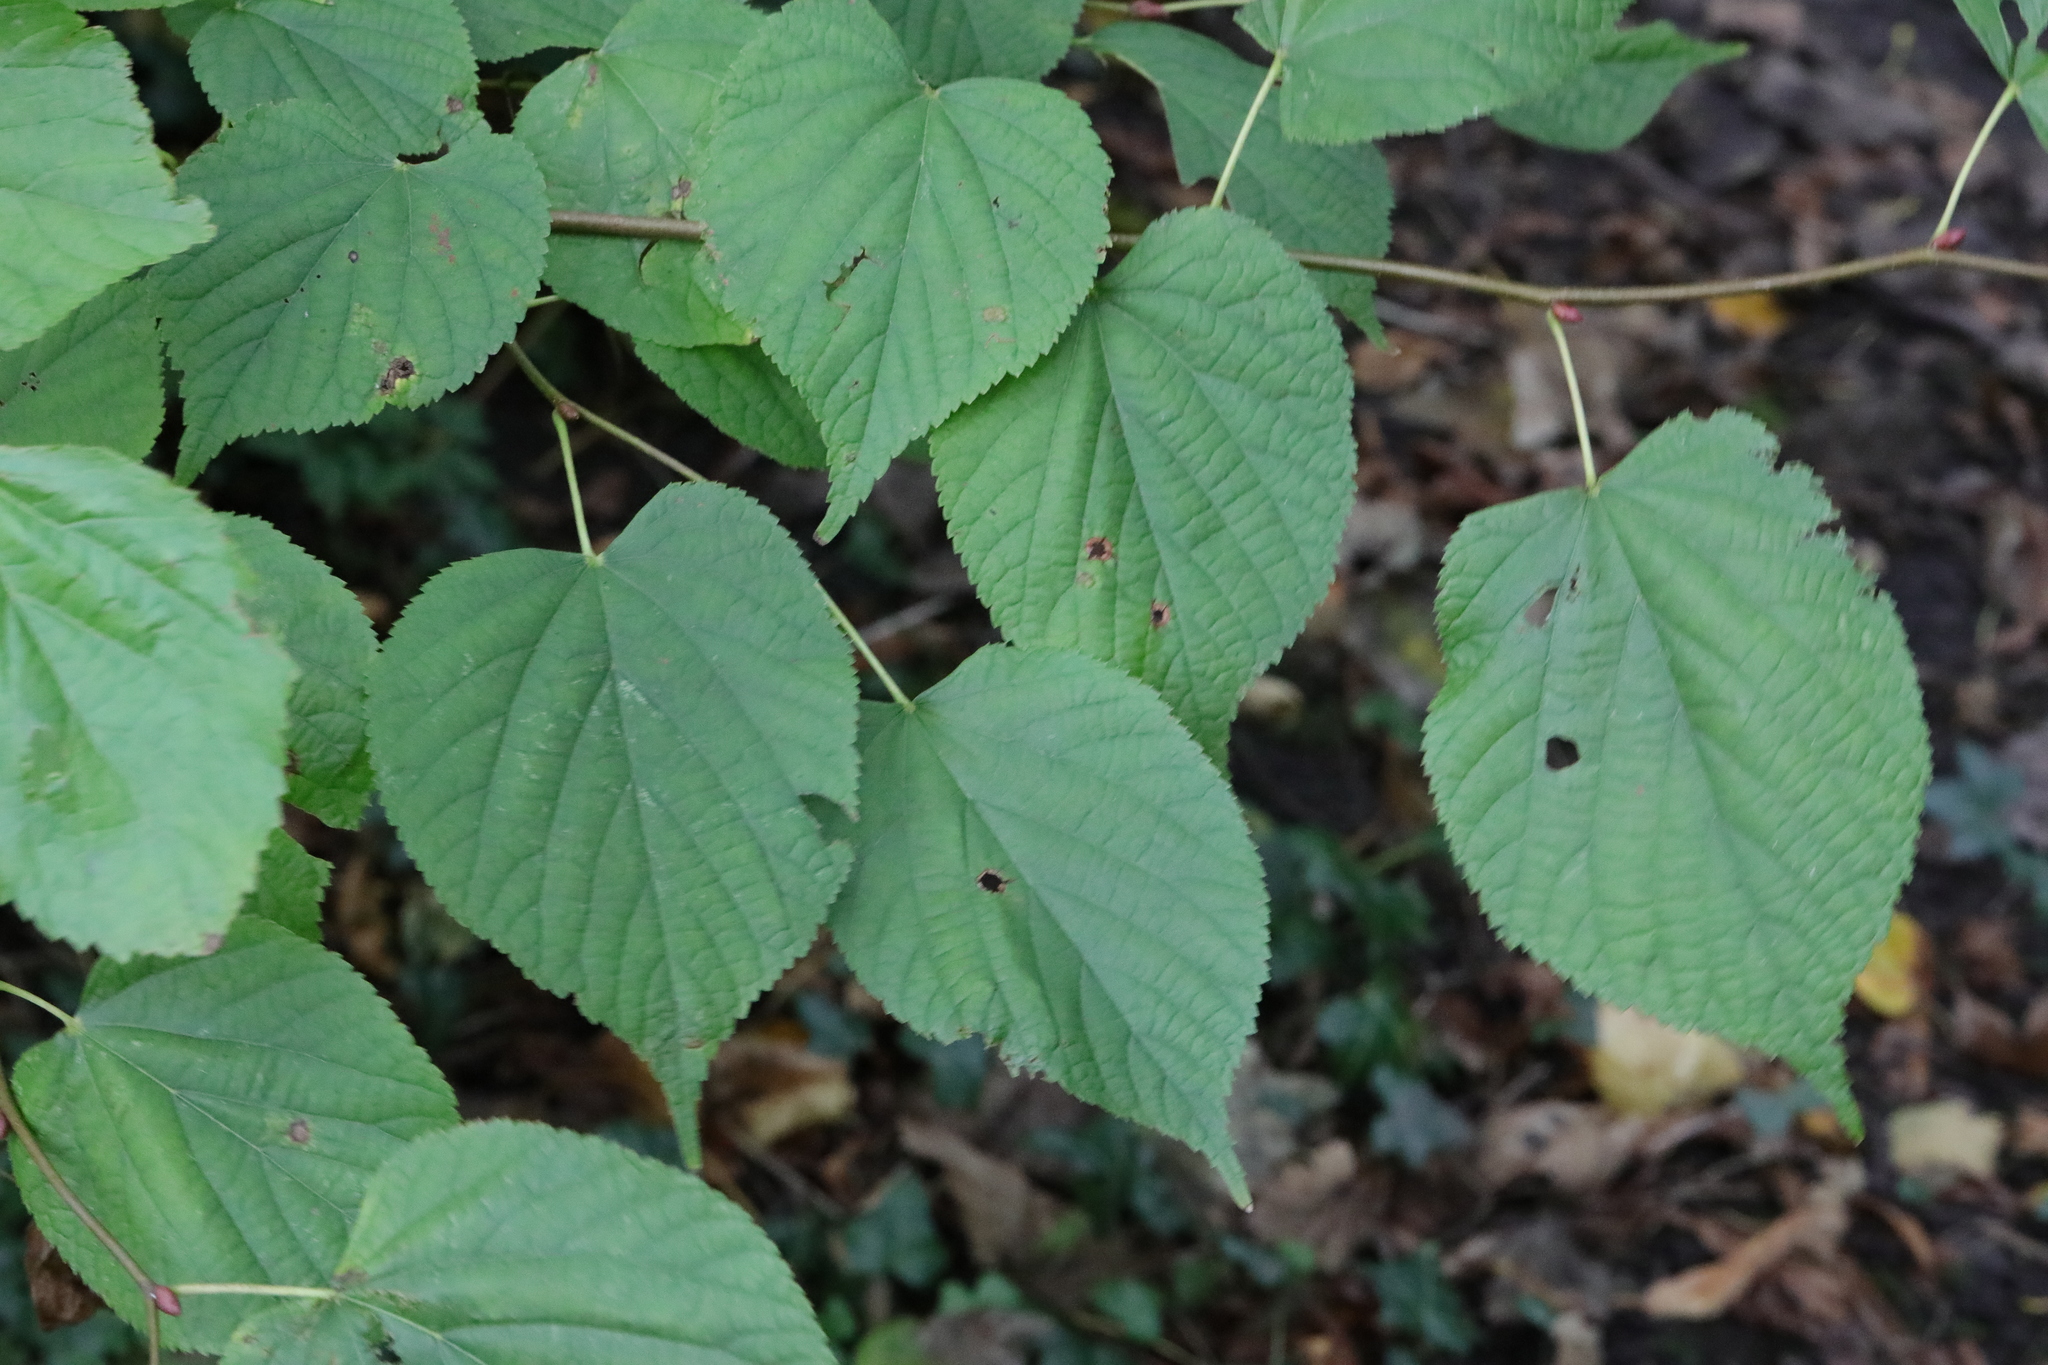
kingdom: Plantae
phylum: Tracheophyta
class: Magnoliopsida
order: Malvales
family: Malvaceae
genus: Tilia
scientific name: Tilia europaea
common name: European linden
